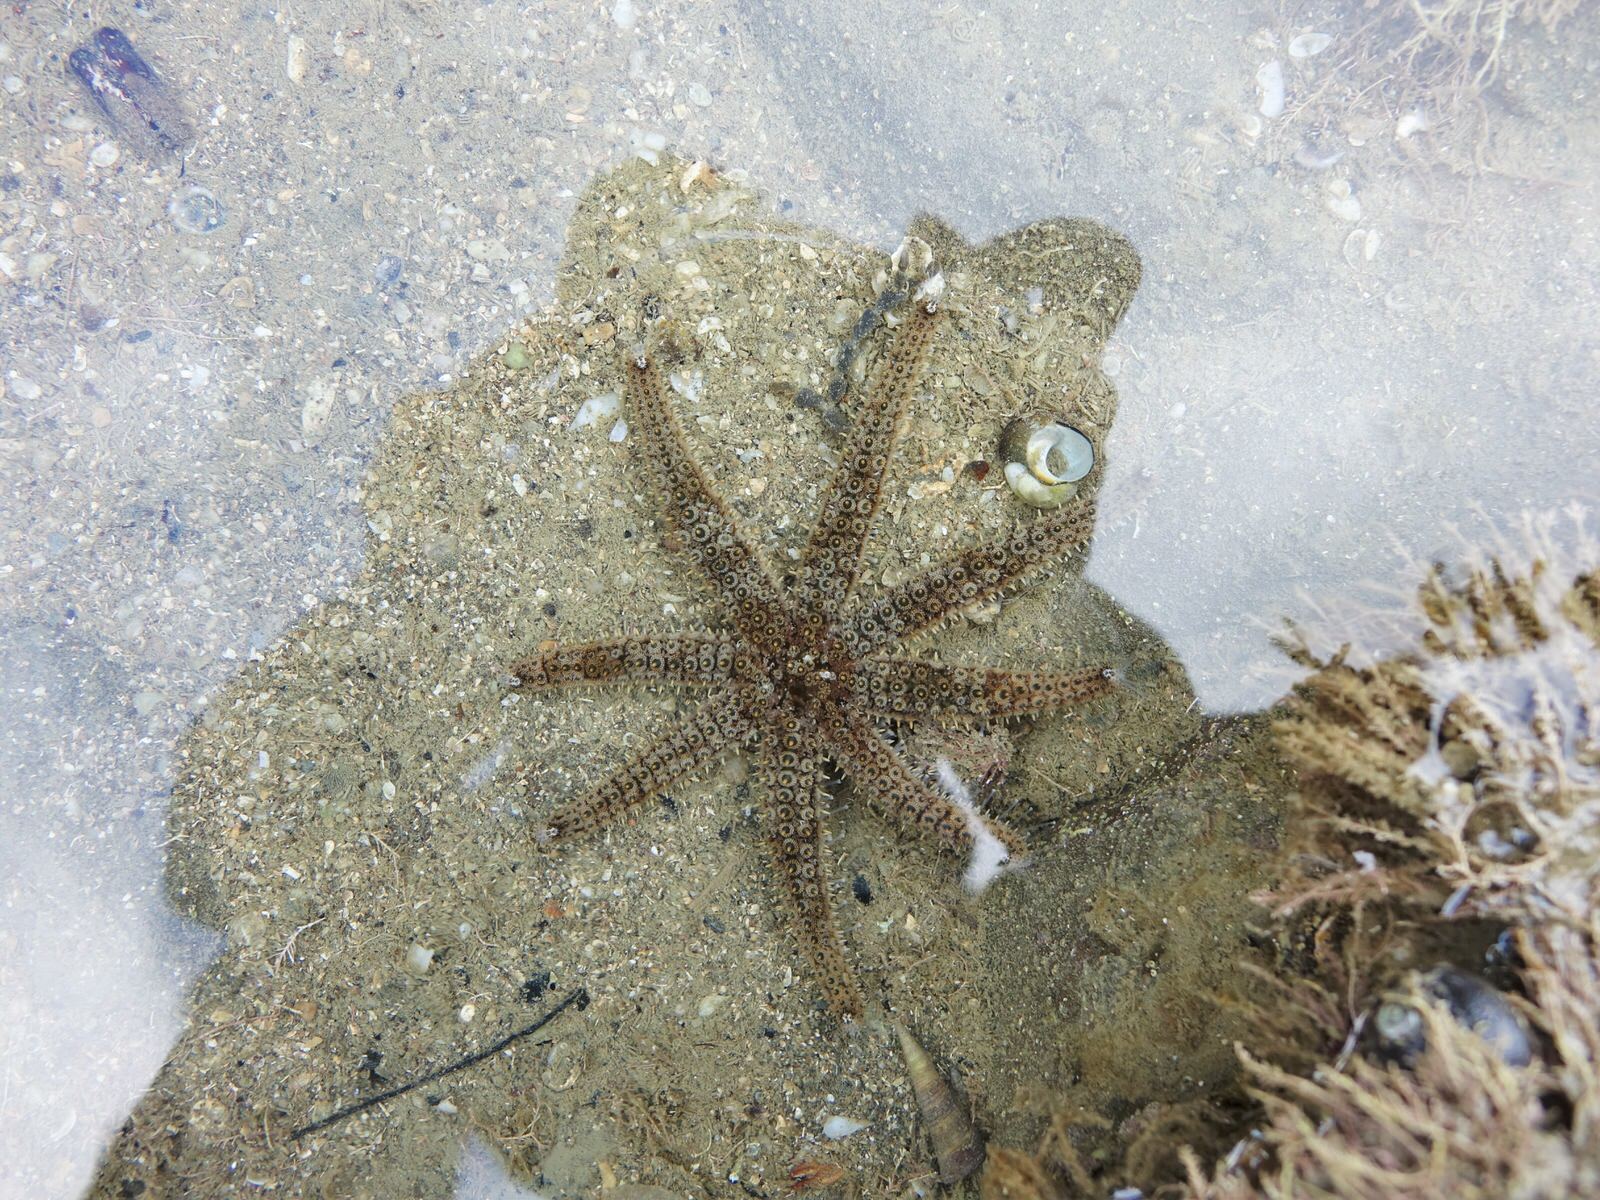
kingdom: Animalia
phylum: Echinodermata
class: Asteroidea
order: Forcipulatida
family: Asteriidae
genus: Coscinasterias
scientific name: Coscinasterias muricata
